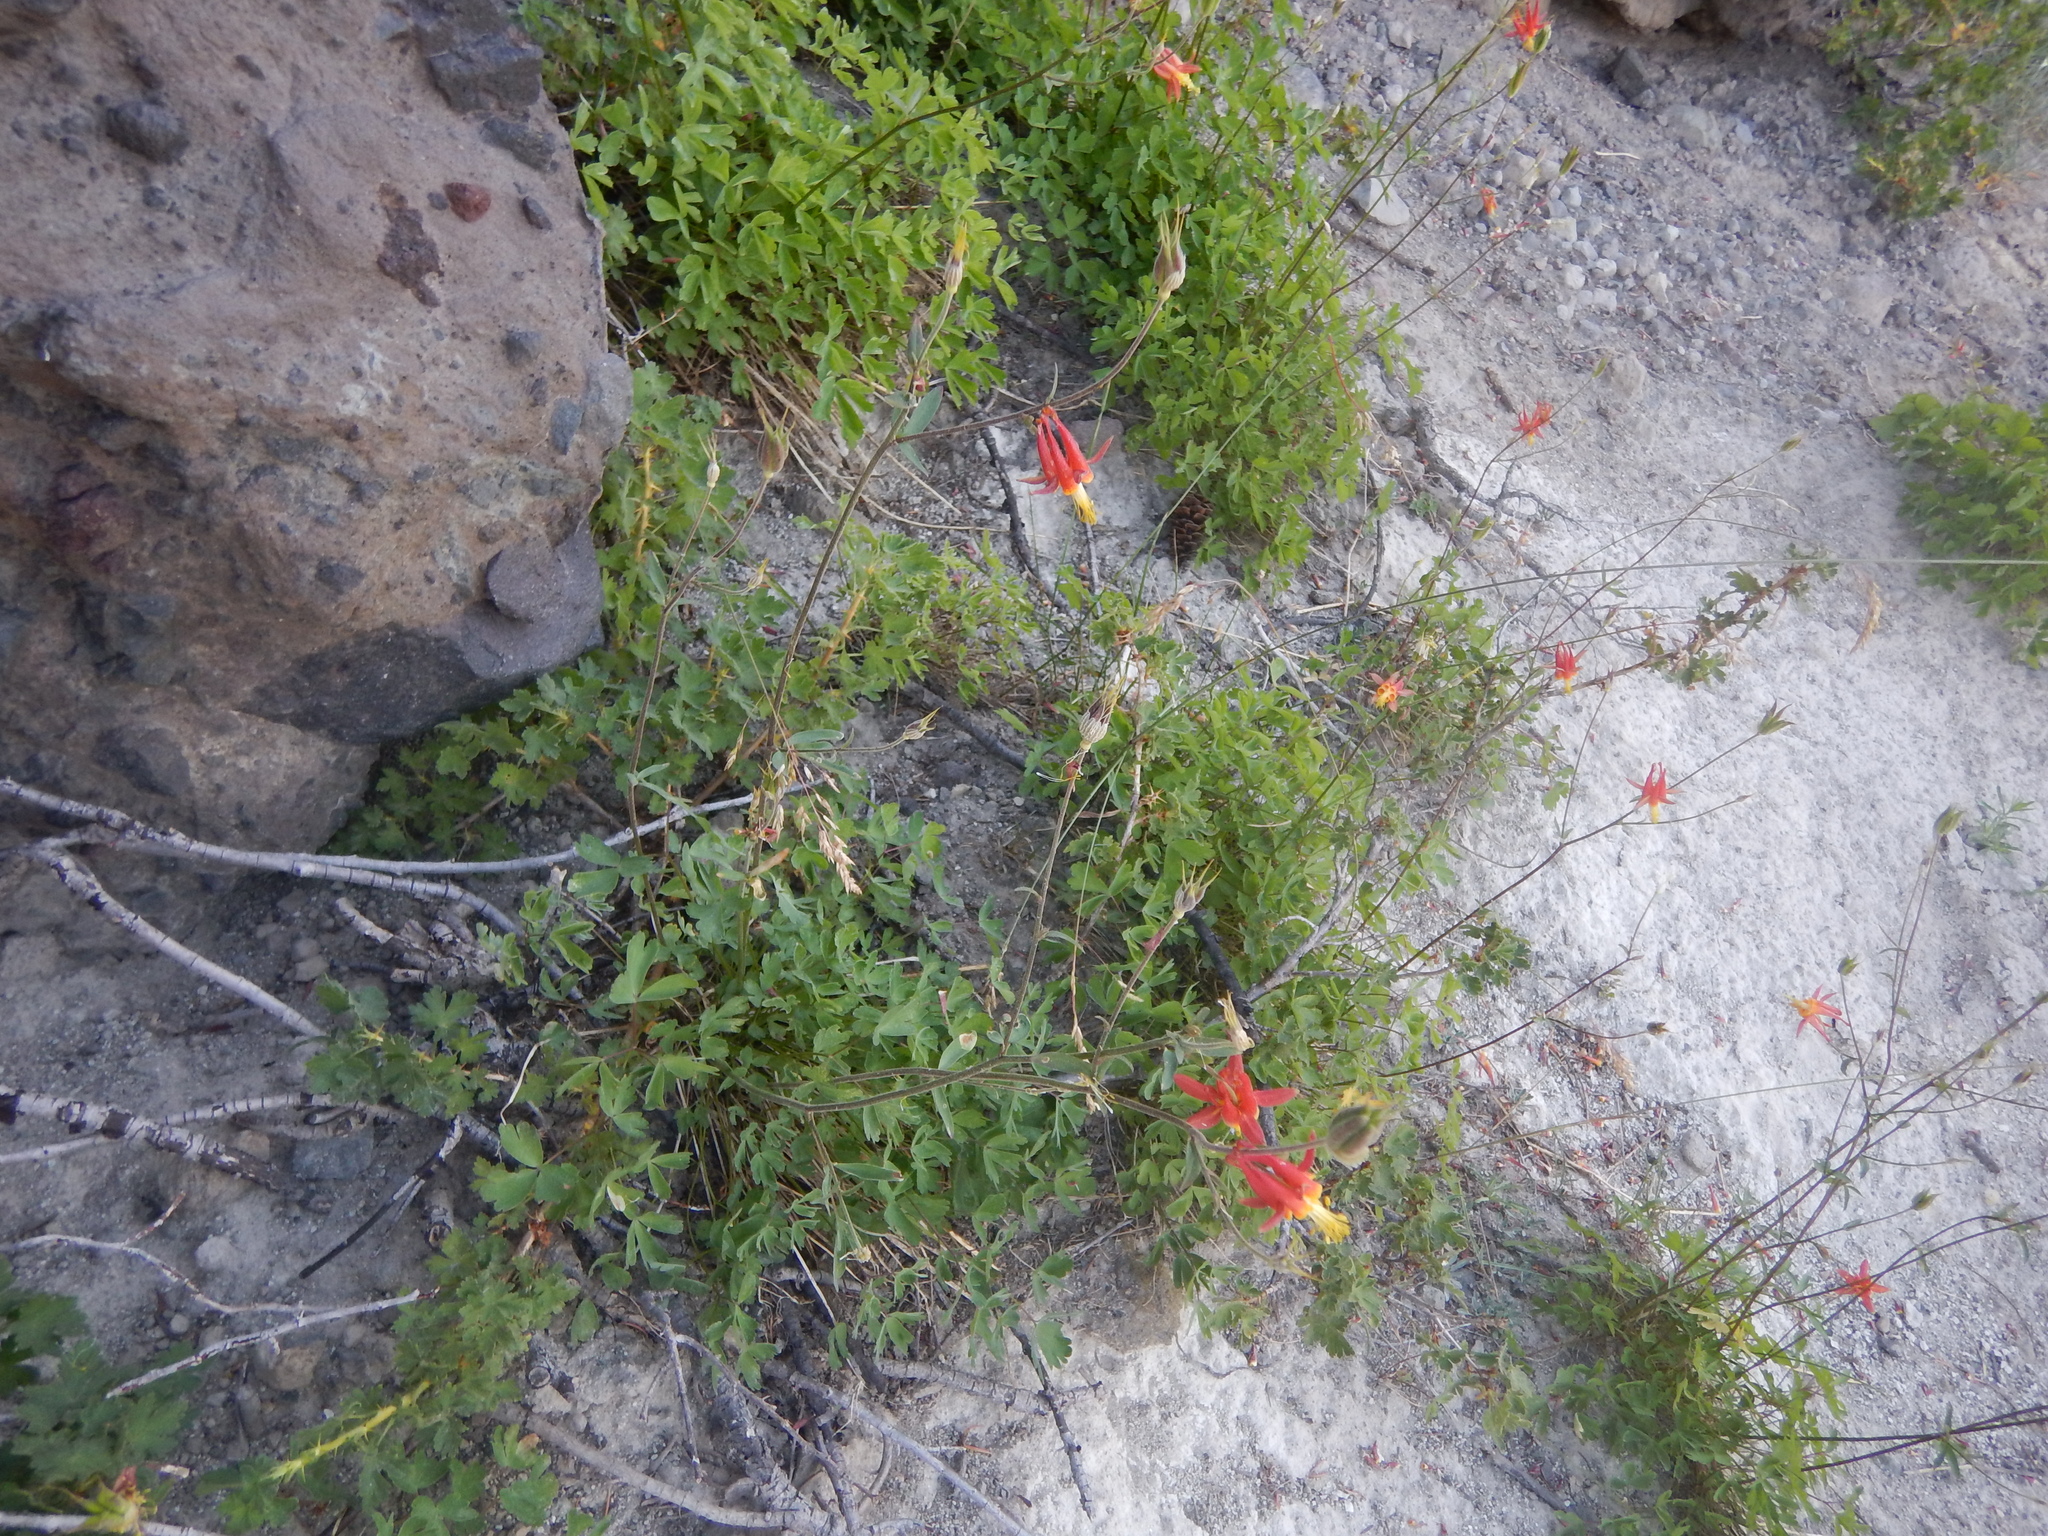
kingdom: Plantae
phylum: Tracheophyta
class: Magnoliopsida
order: Ranunculales
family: Ranunculaceae
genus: Aquilegia
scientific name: Aquilegia formosa
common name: Sitka columbine
